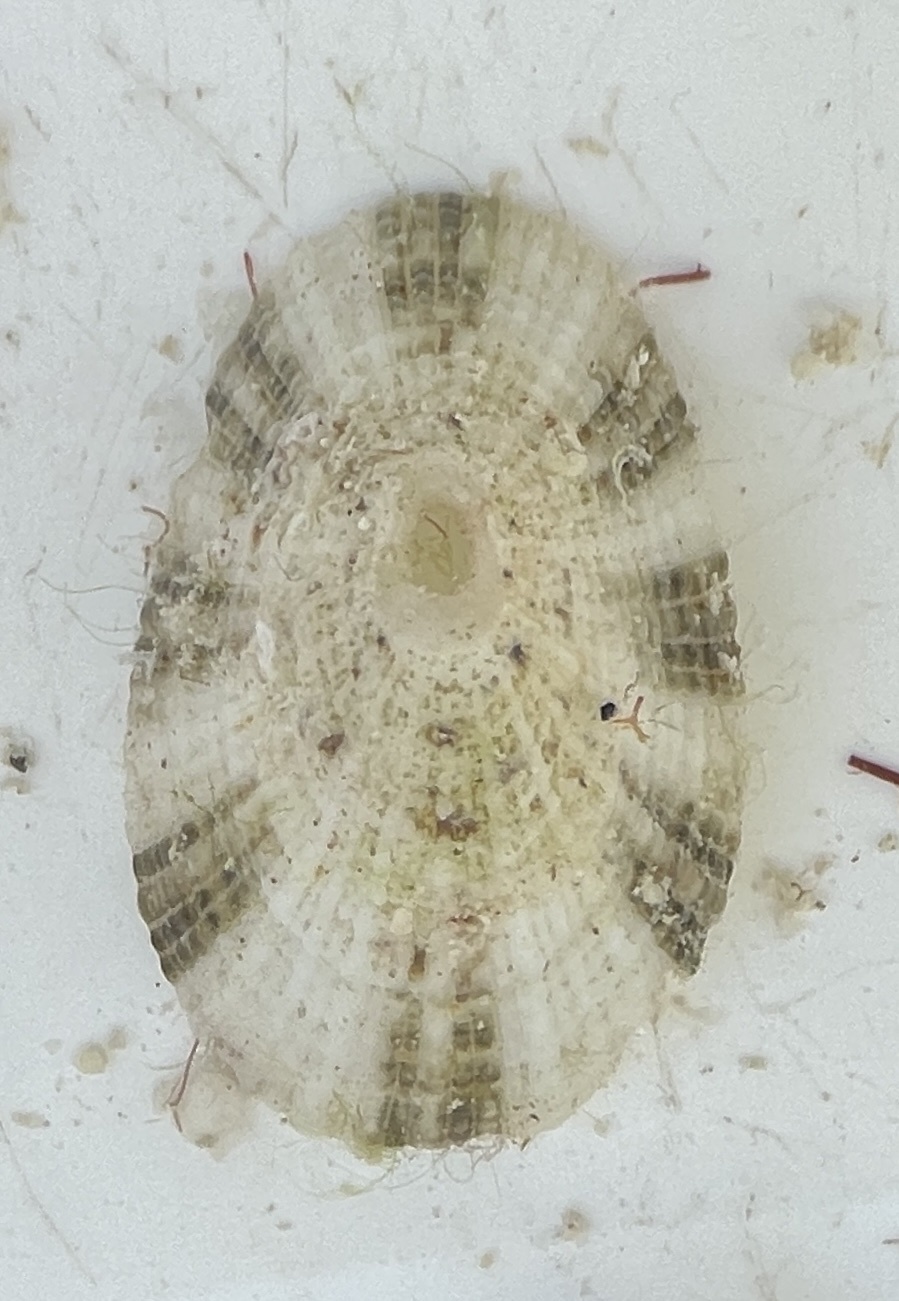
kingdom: Animalia
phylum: Mollusca
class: Gastropoda
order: Lepetellida
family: Fissurellidae
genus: Diodora
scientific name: Diodora cayenensis
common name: Cayenne keyhole limpet
